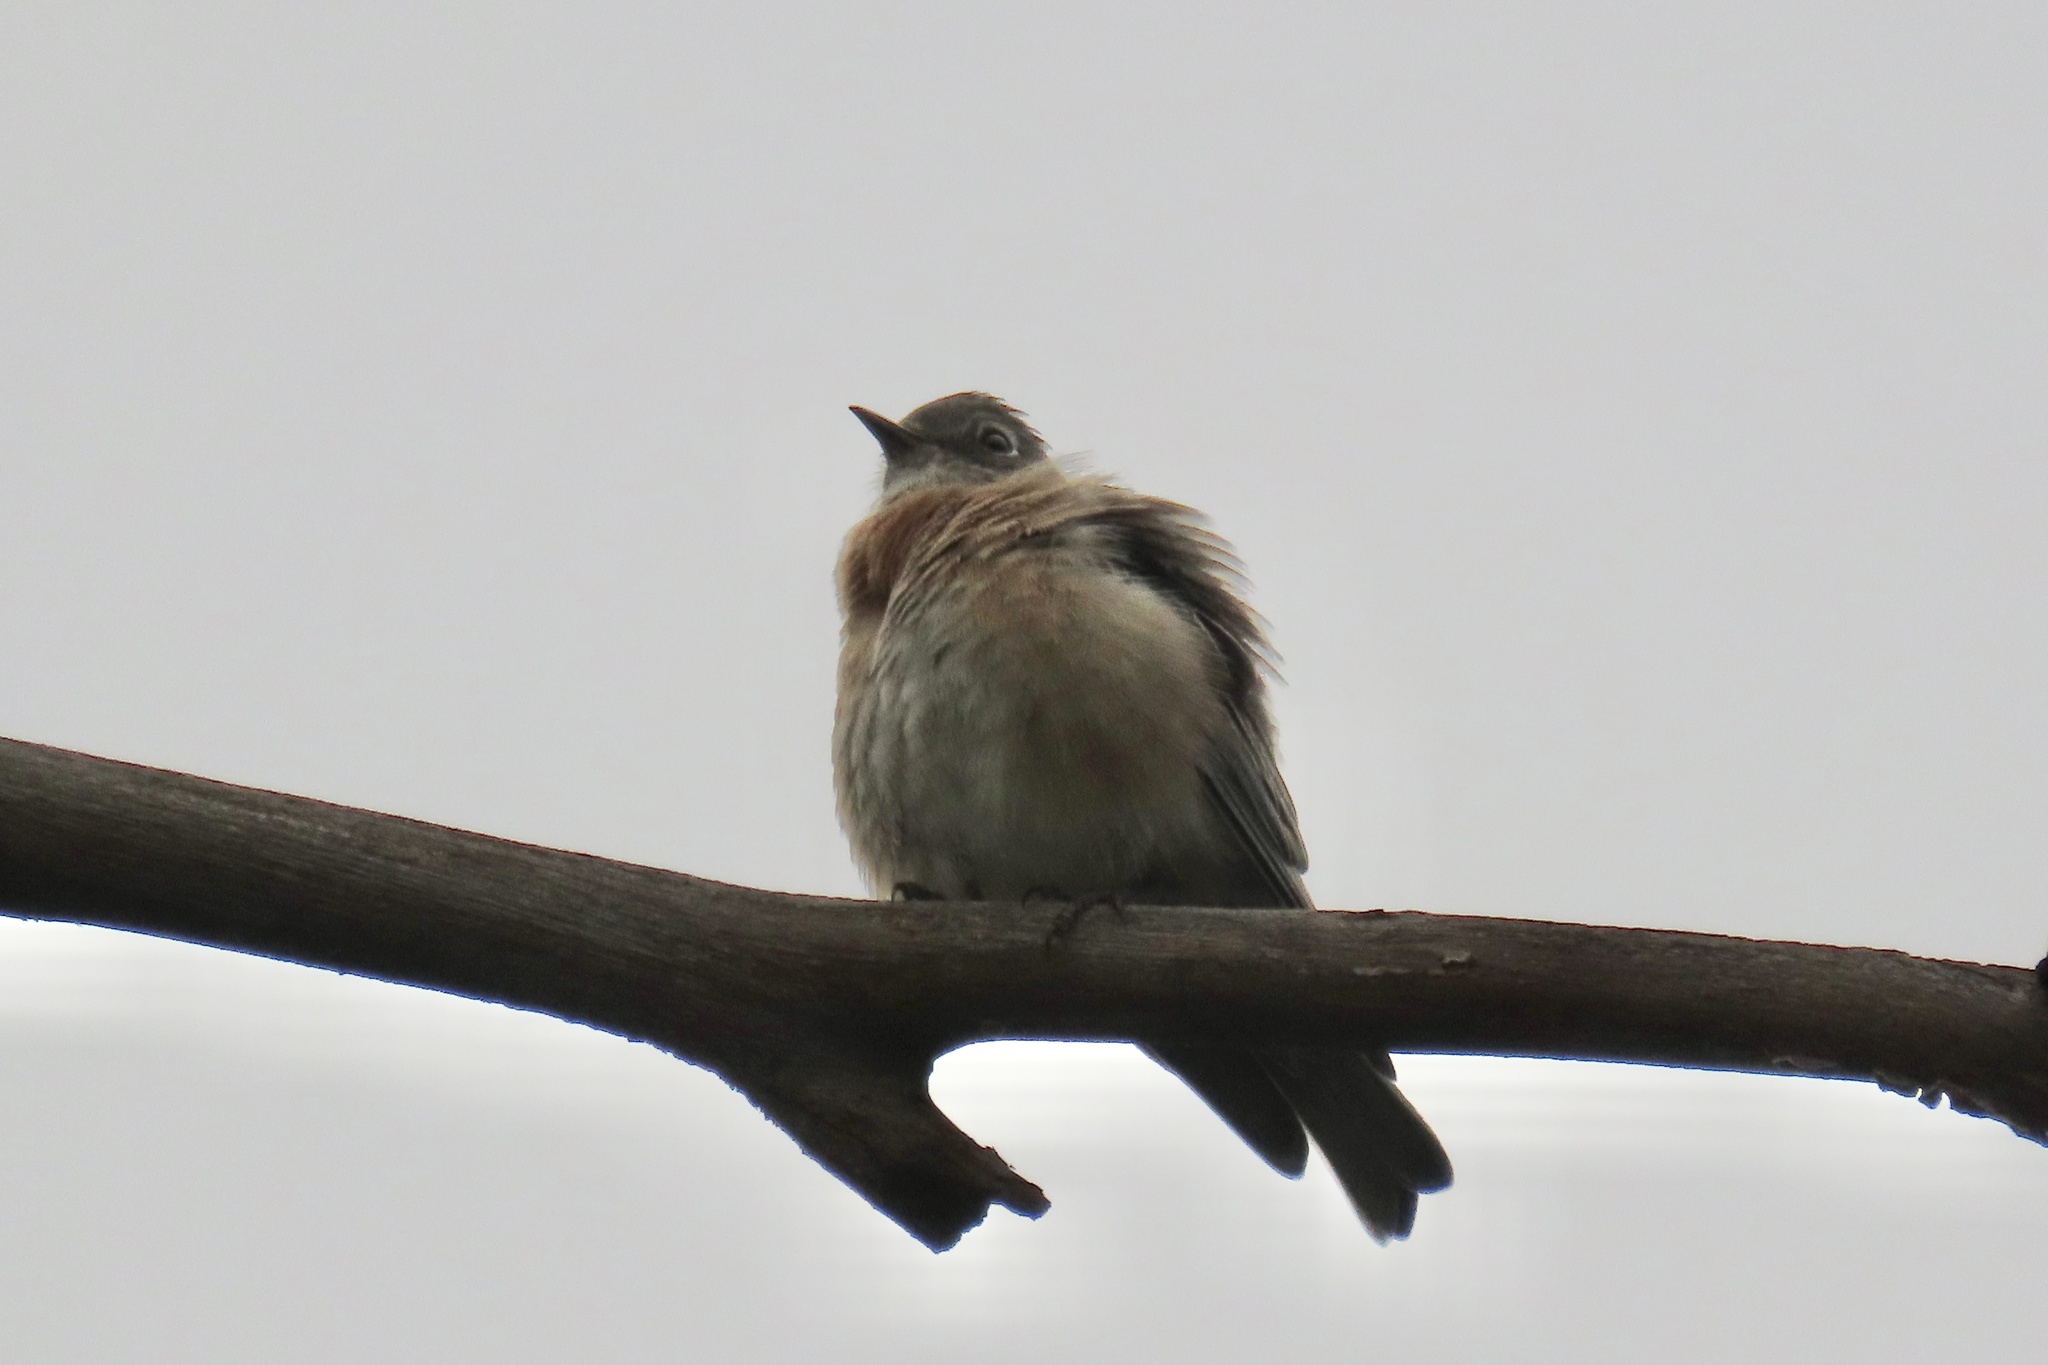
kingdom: Animalia
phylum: Chordata
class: Aves
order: Passeriformes
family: Turdidae
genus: Sialia
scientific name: Sialia mexicana
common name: Western bluebird
